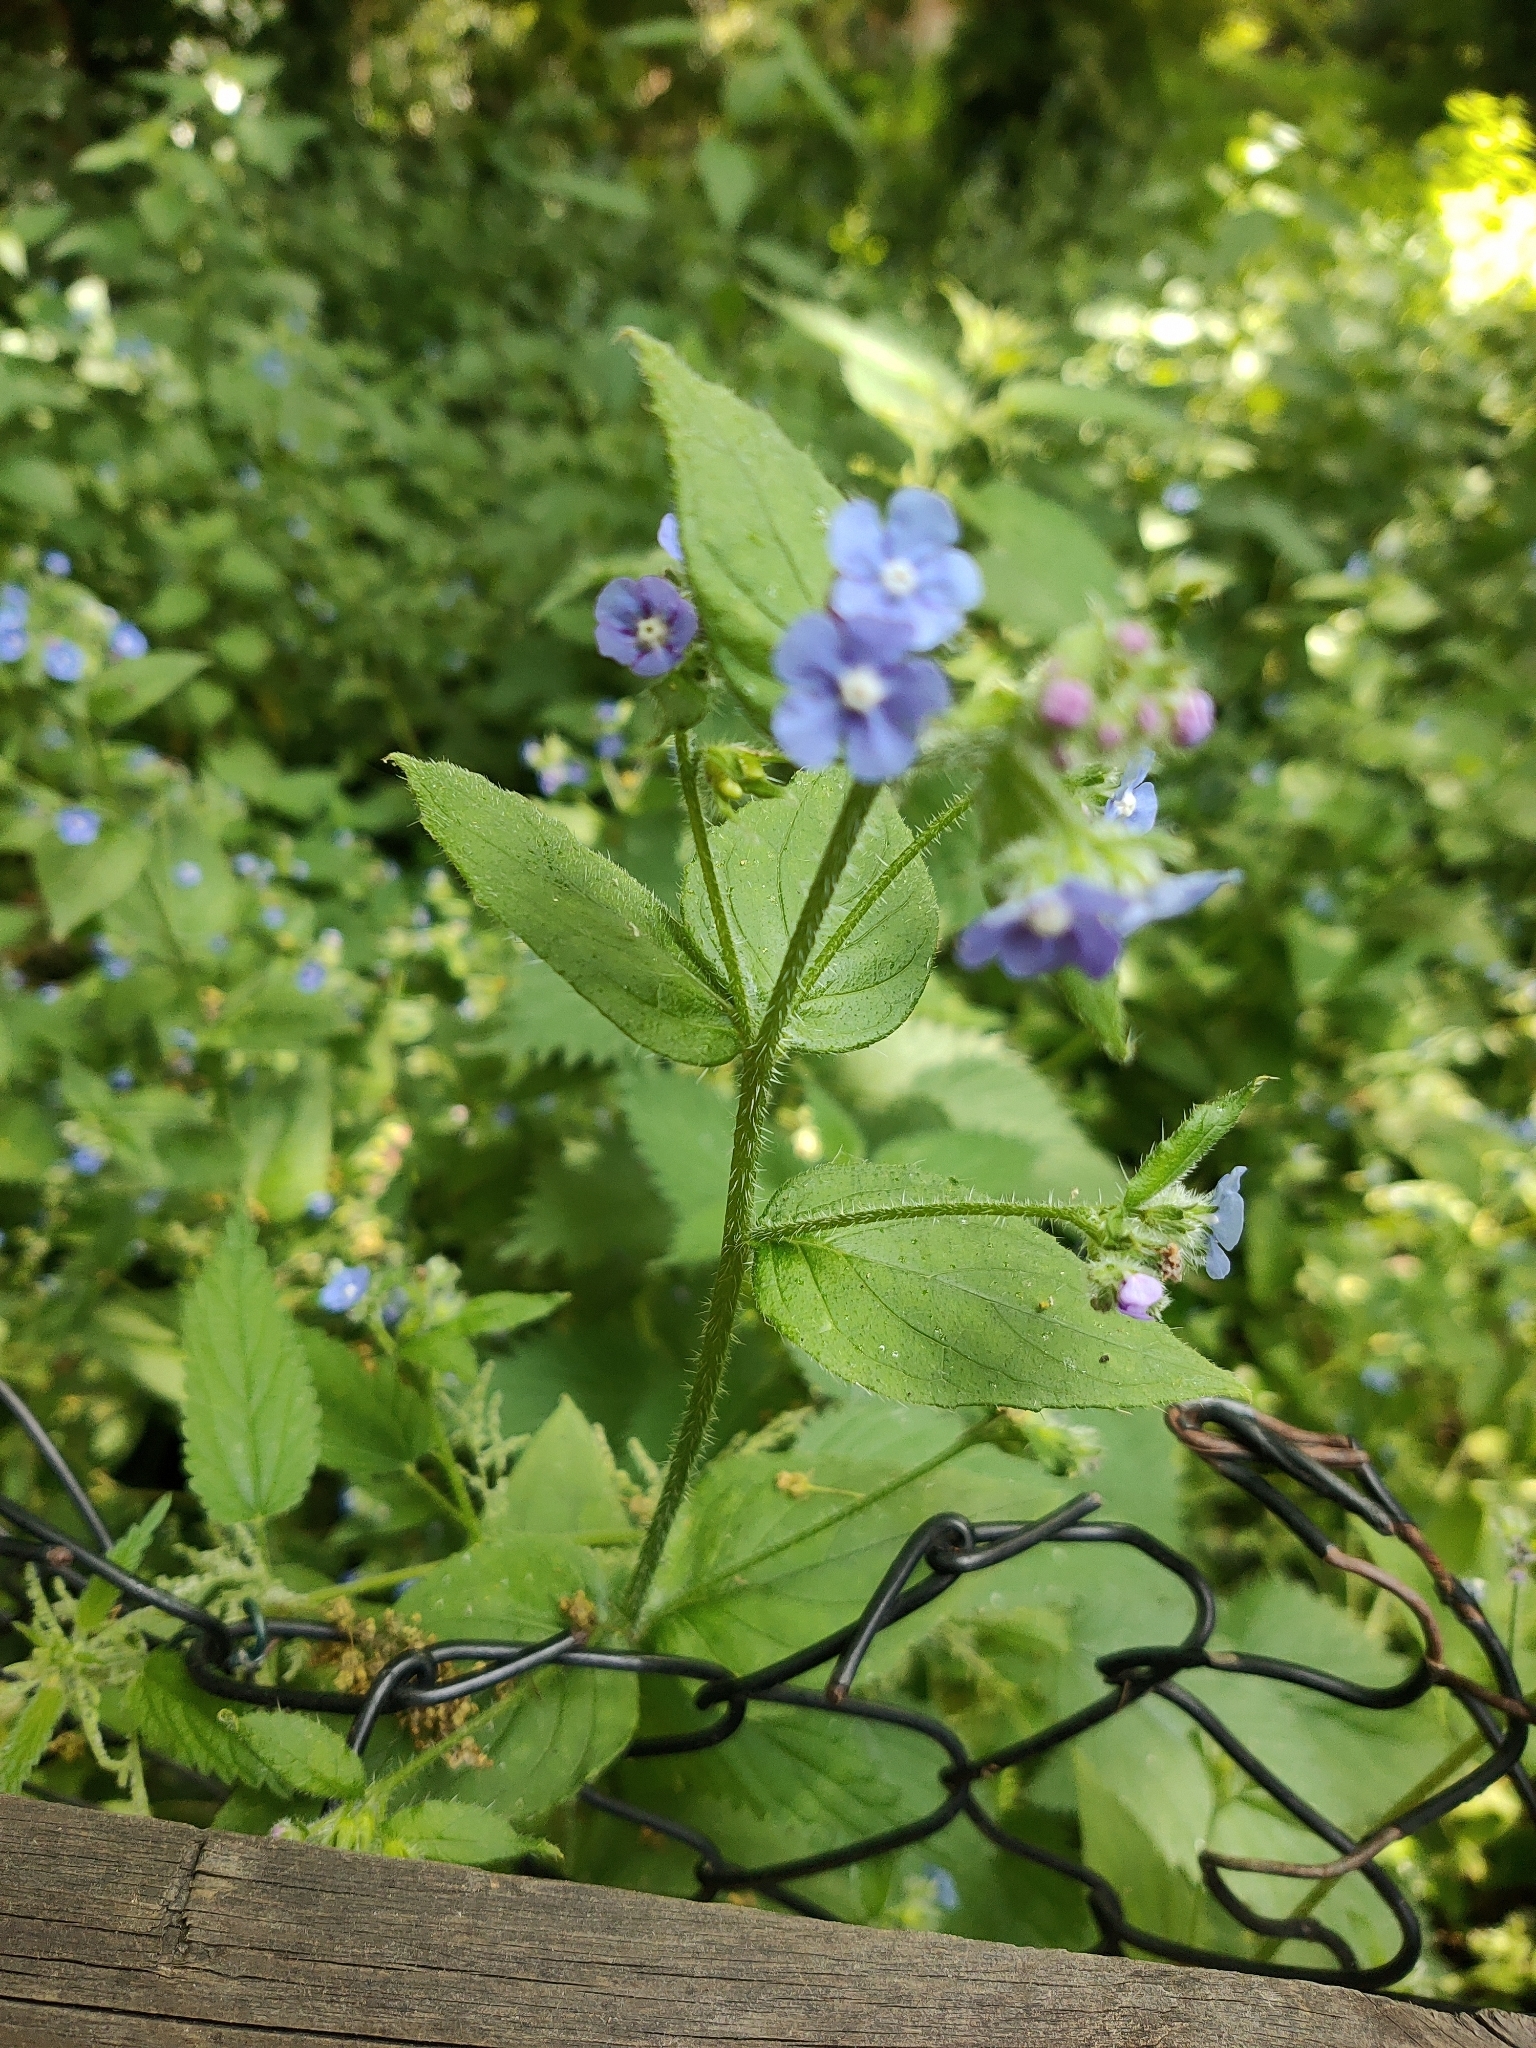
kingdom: Plantae
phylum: Tracheophyta
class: Magnoliopsida
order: Boraginales
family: Boraginaceae
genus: Pentaglottis
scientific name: Pentaglottis sempervirens
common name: Green alkanet
